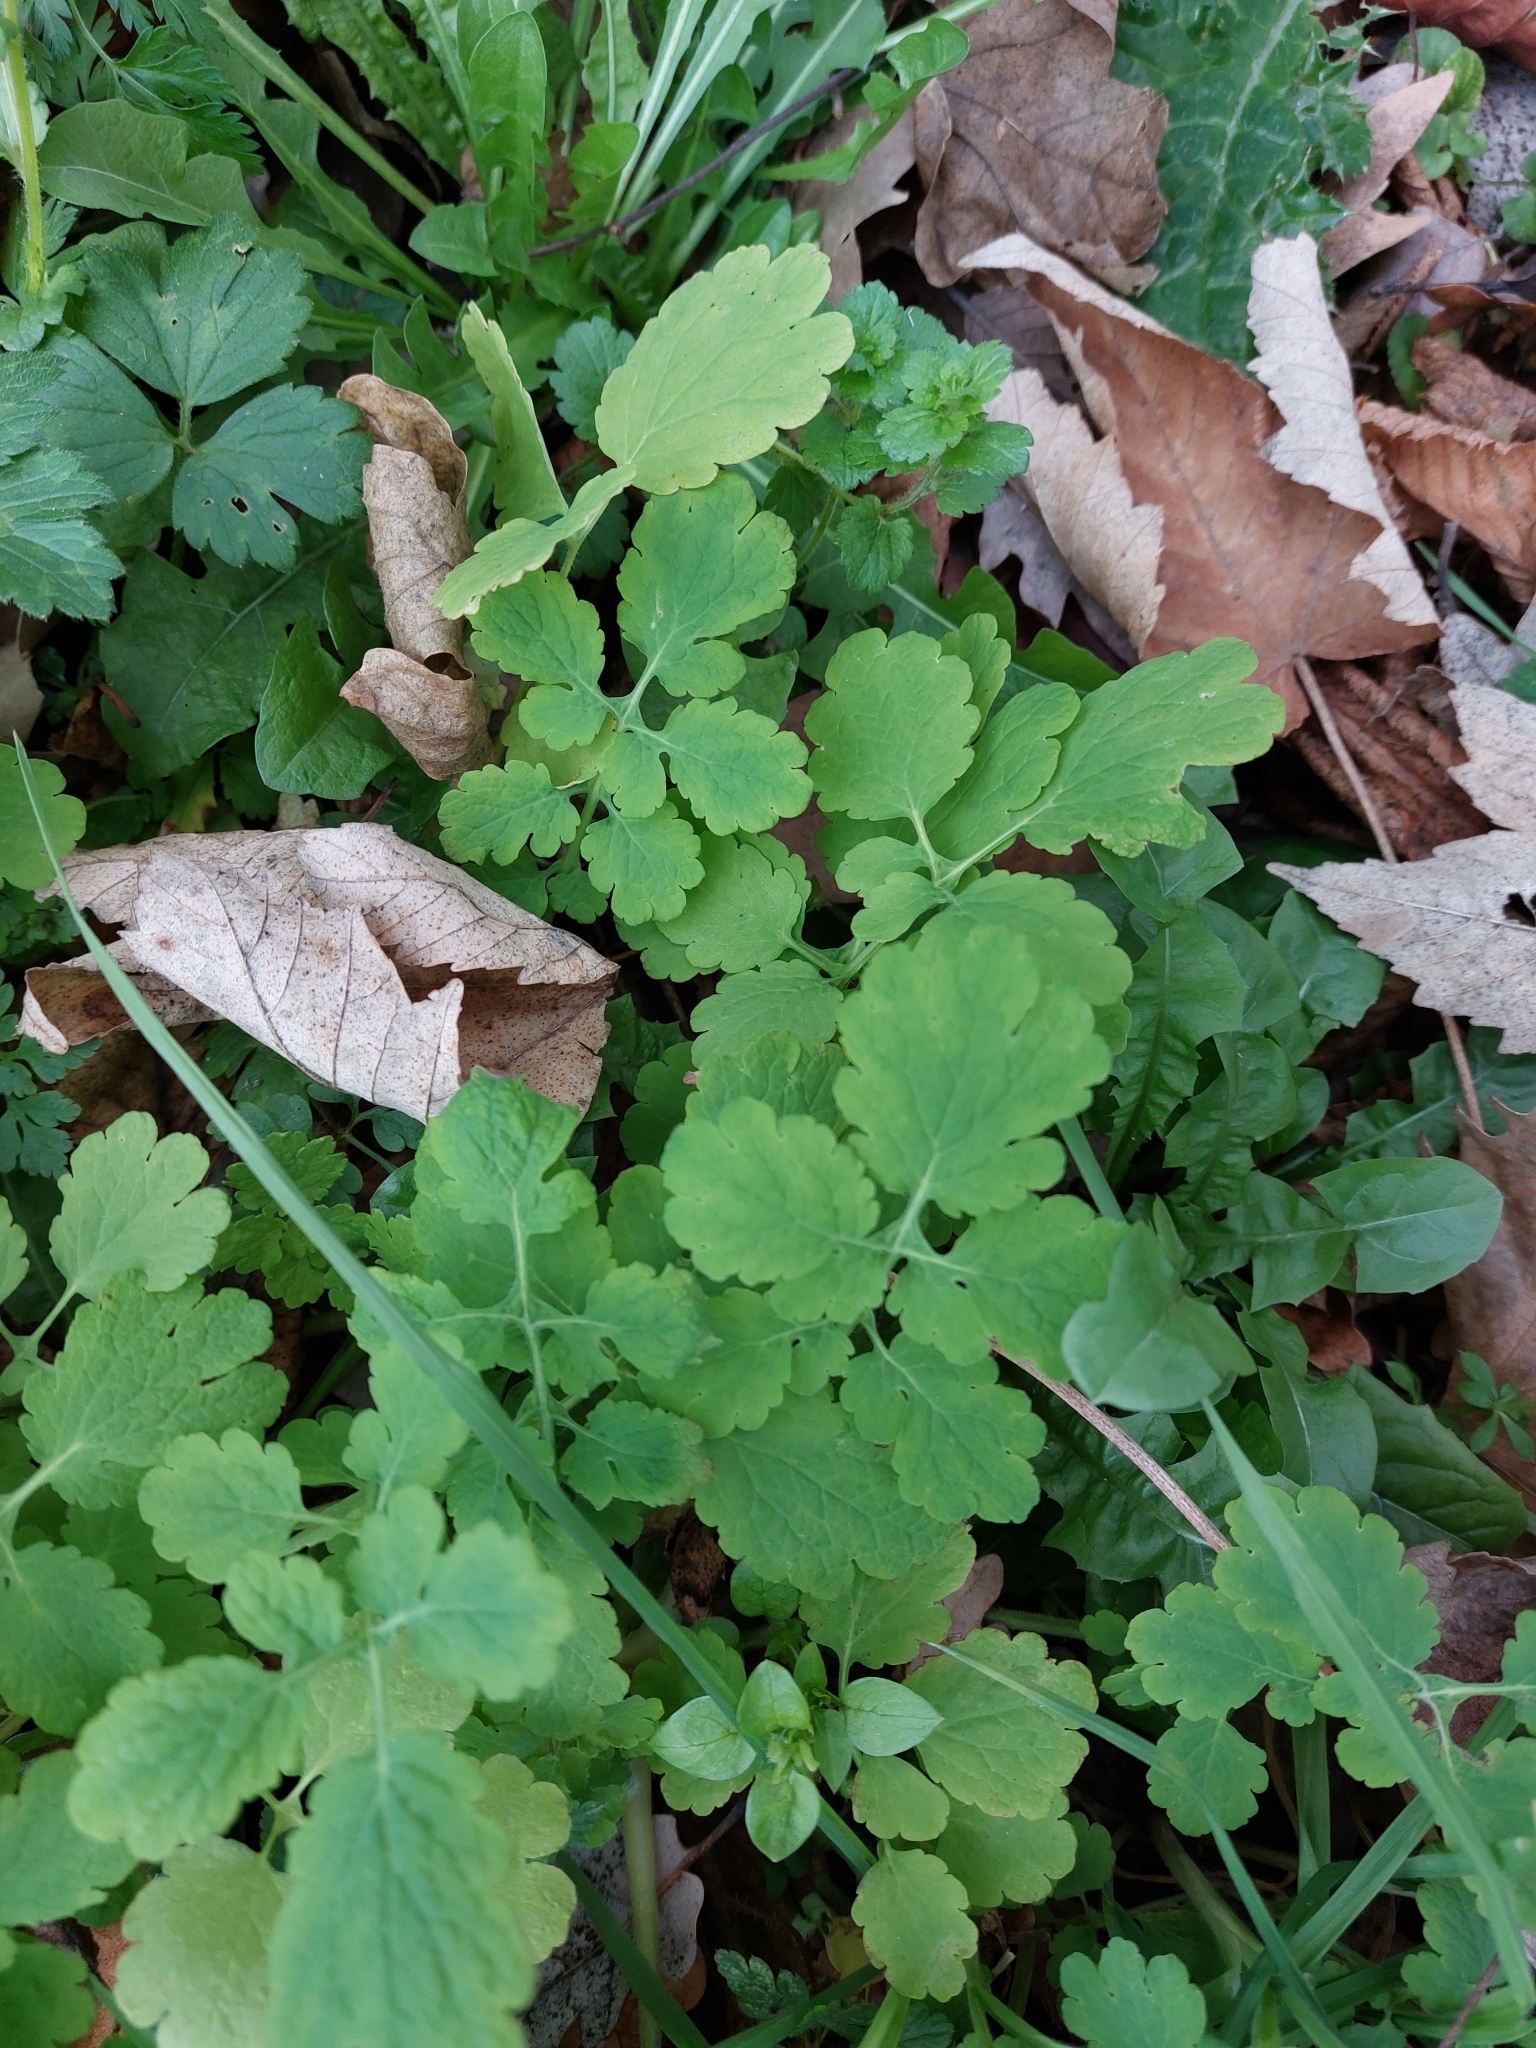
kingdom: Plantae
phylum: Tracheophyta
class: Magnoliopsida
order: Ranunculales
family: Papaveraceae
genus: Chelidonium
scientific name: Chelidonium majus
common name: Greater celandine
